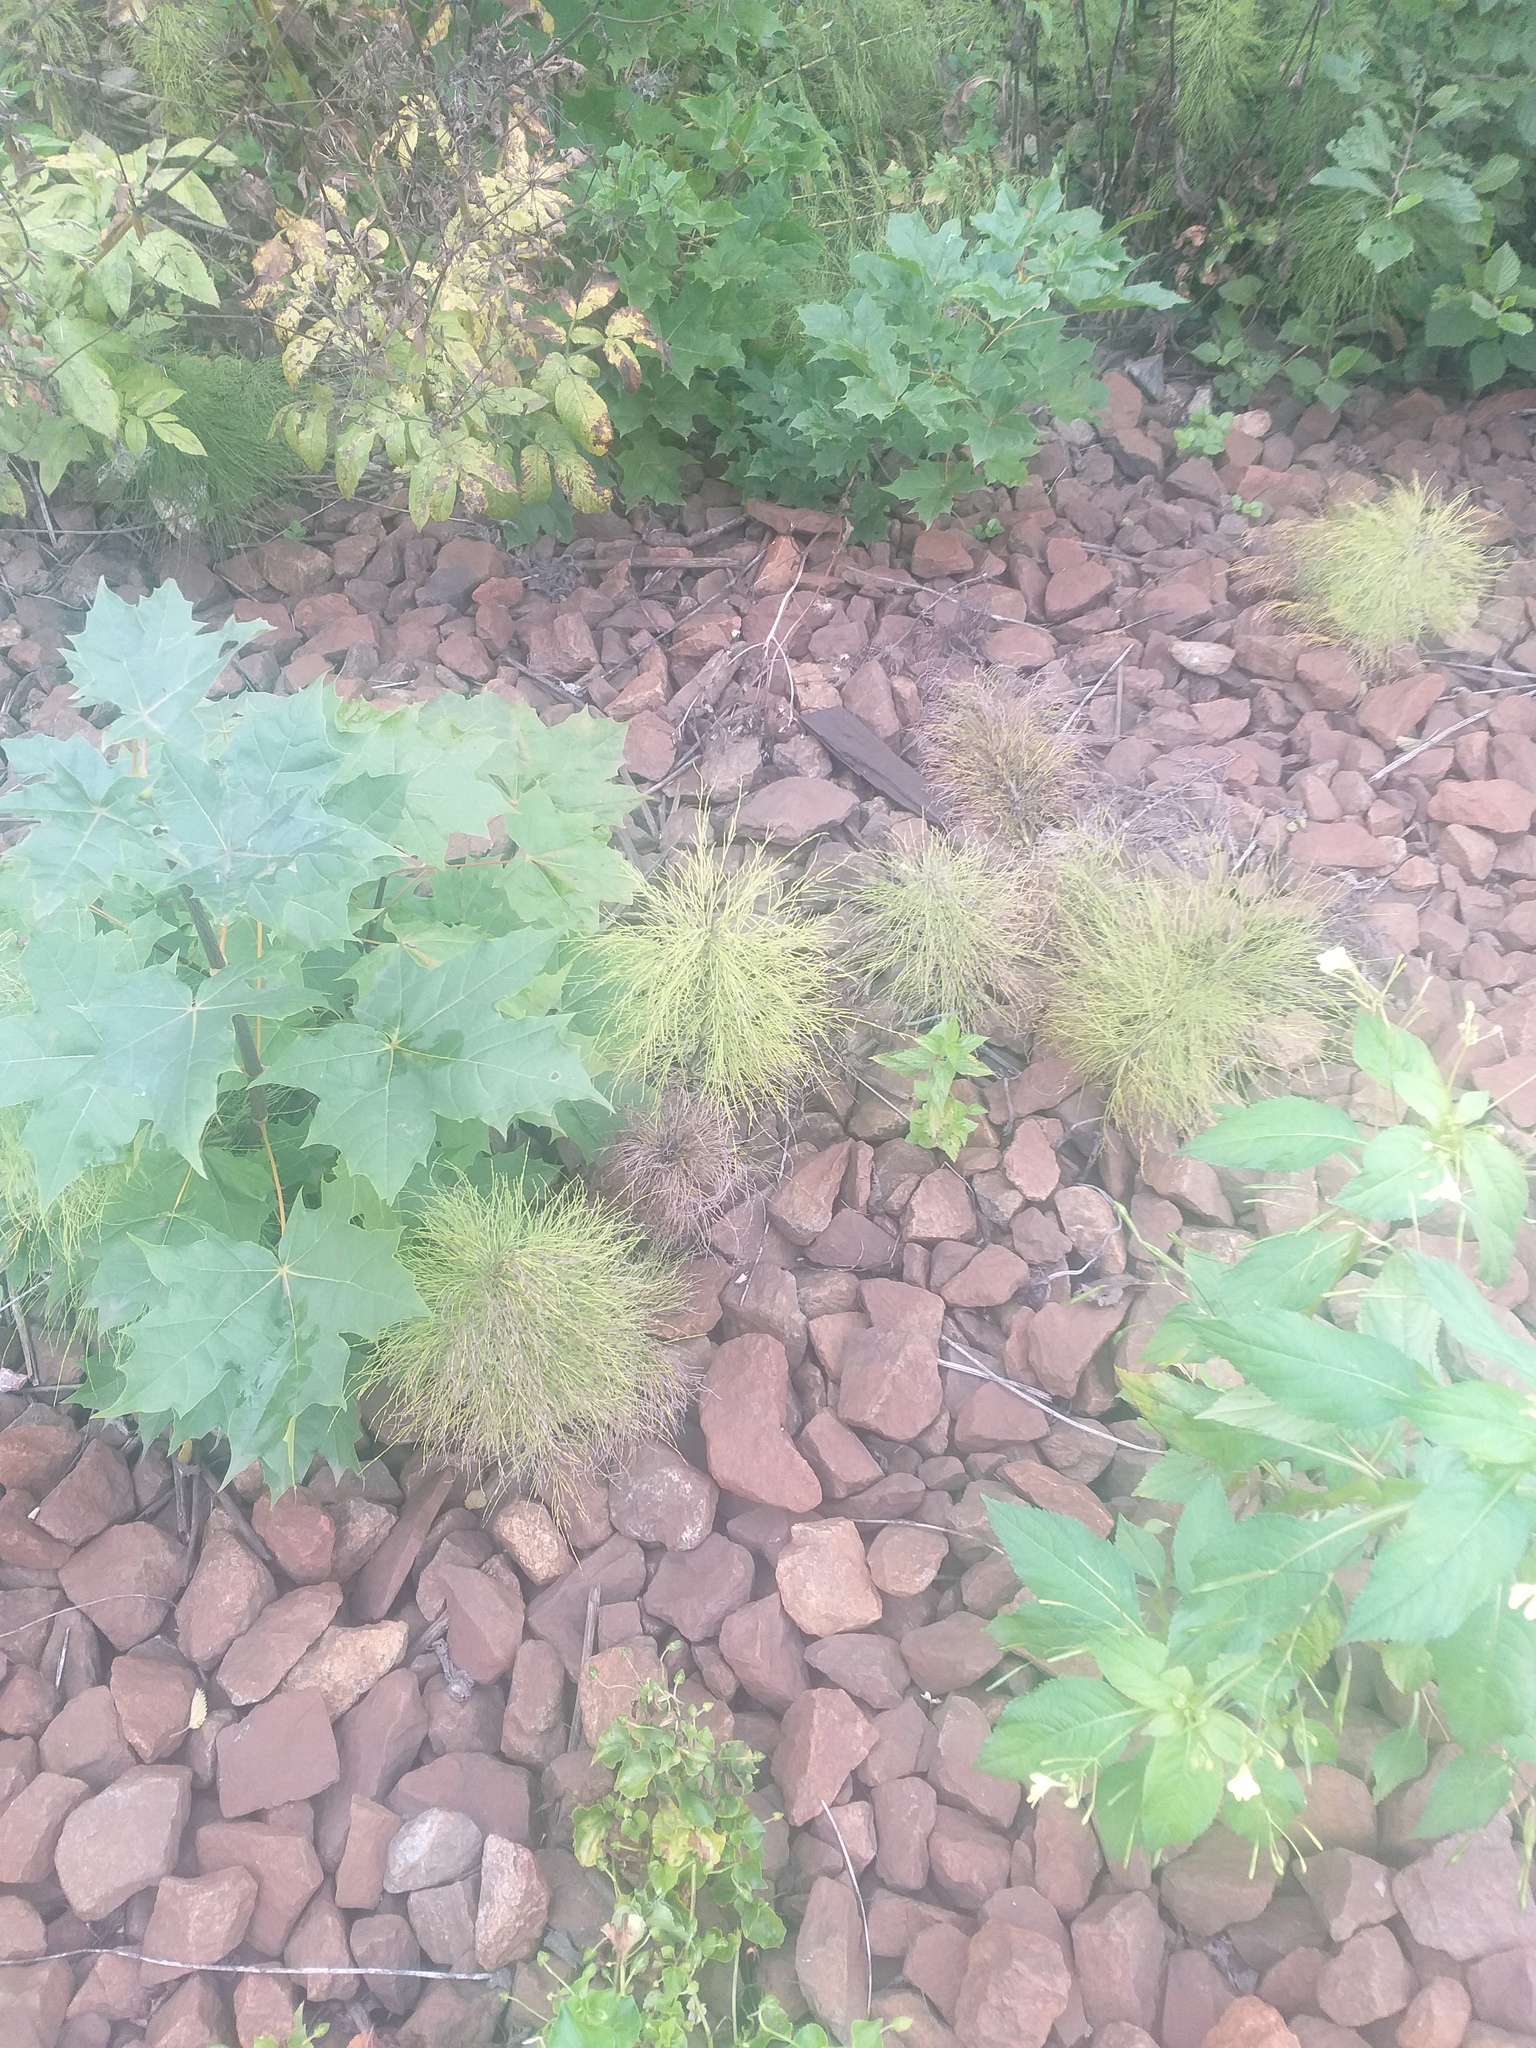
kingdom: Plantae
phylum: Tracheophyta
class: Polypodiopsida
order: Equisetales
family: Equisetaceae
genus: Equisetum
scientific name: Equisetum sylvaticum
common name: Wood horsetail
